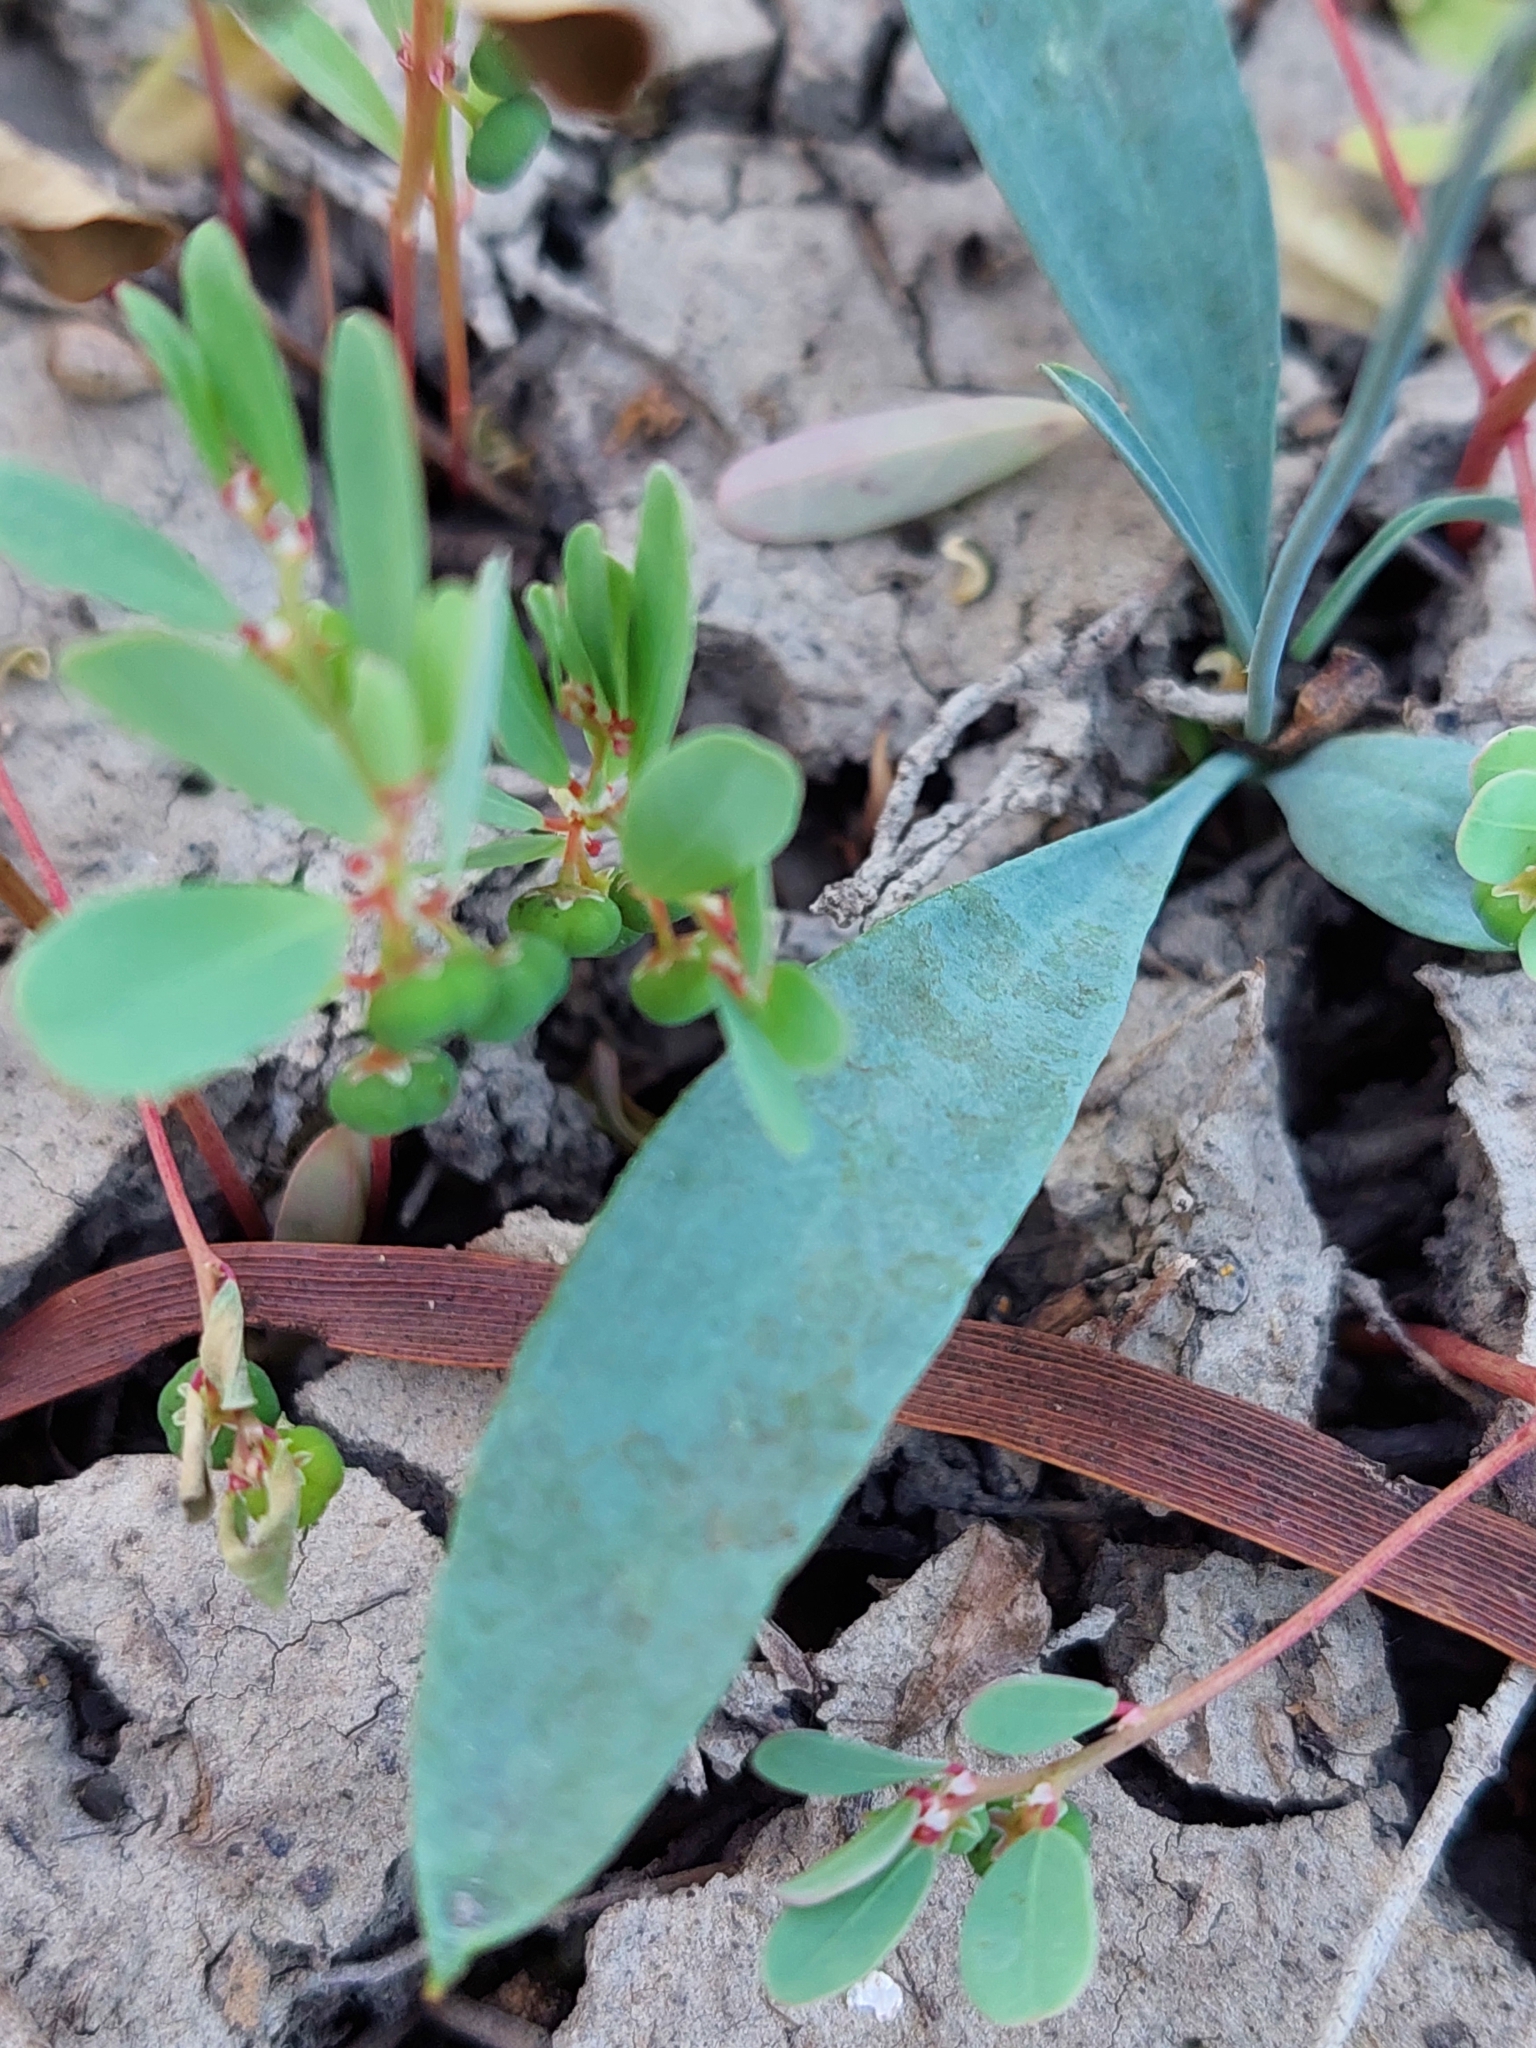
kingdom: Plantae
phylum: Tracheophyta
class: Magnoliopsida
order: Asterales
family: Goodeniaceae
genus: Goodenia
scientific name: Goodenia glauca
